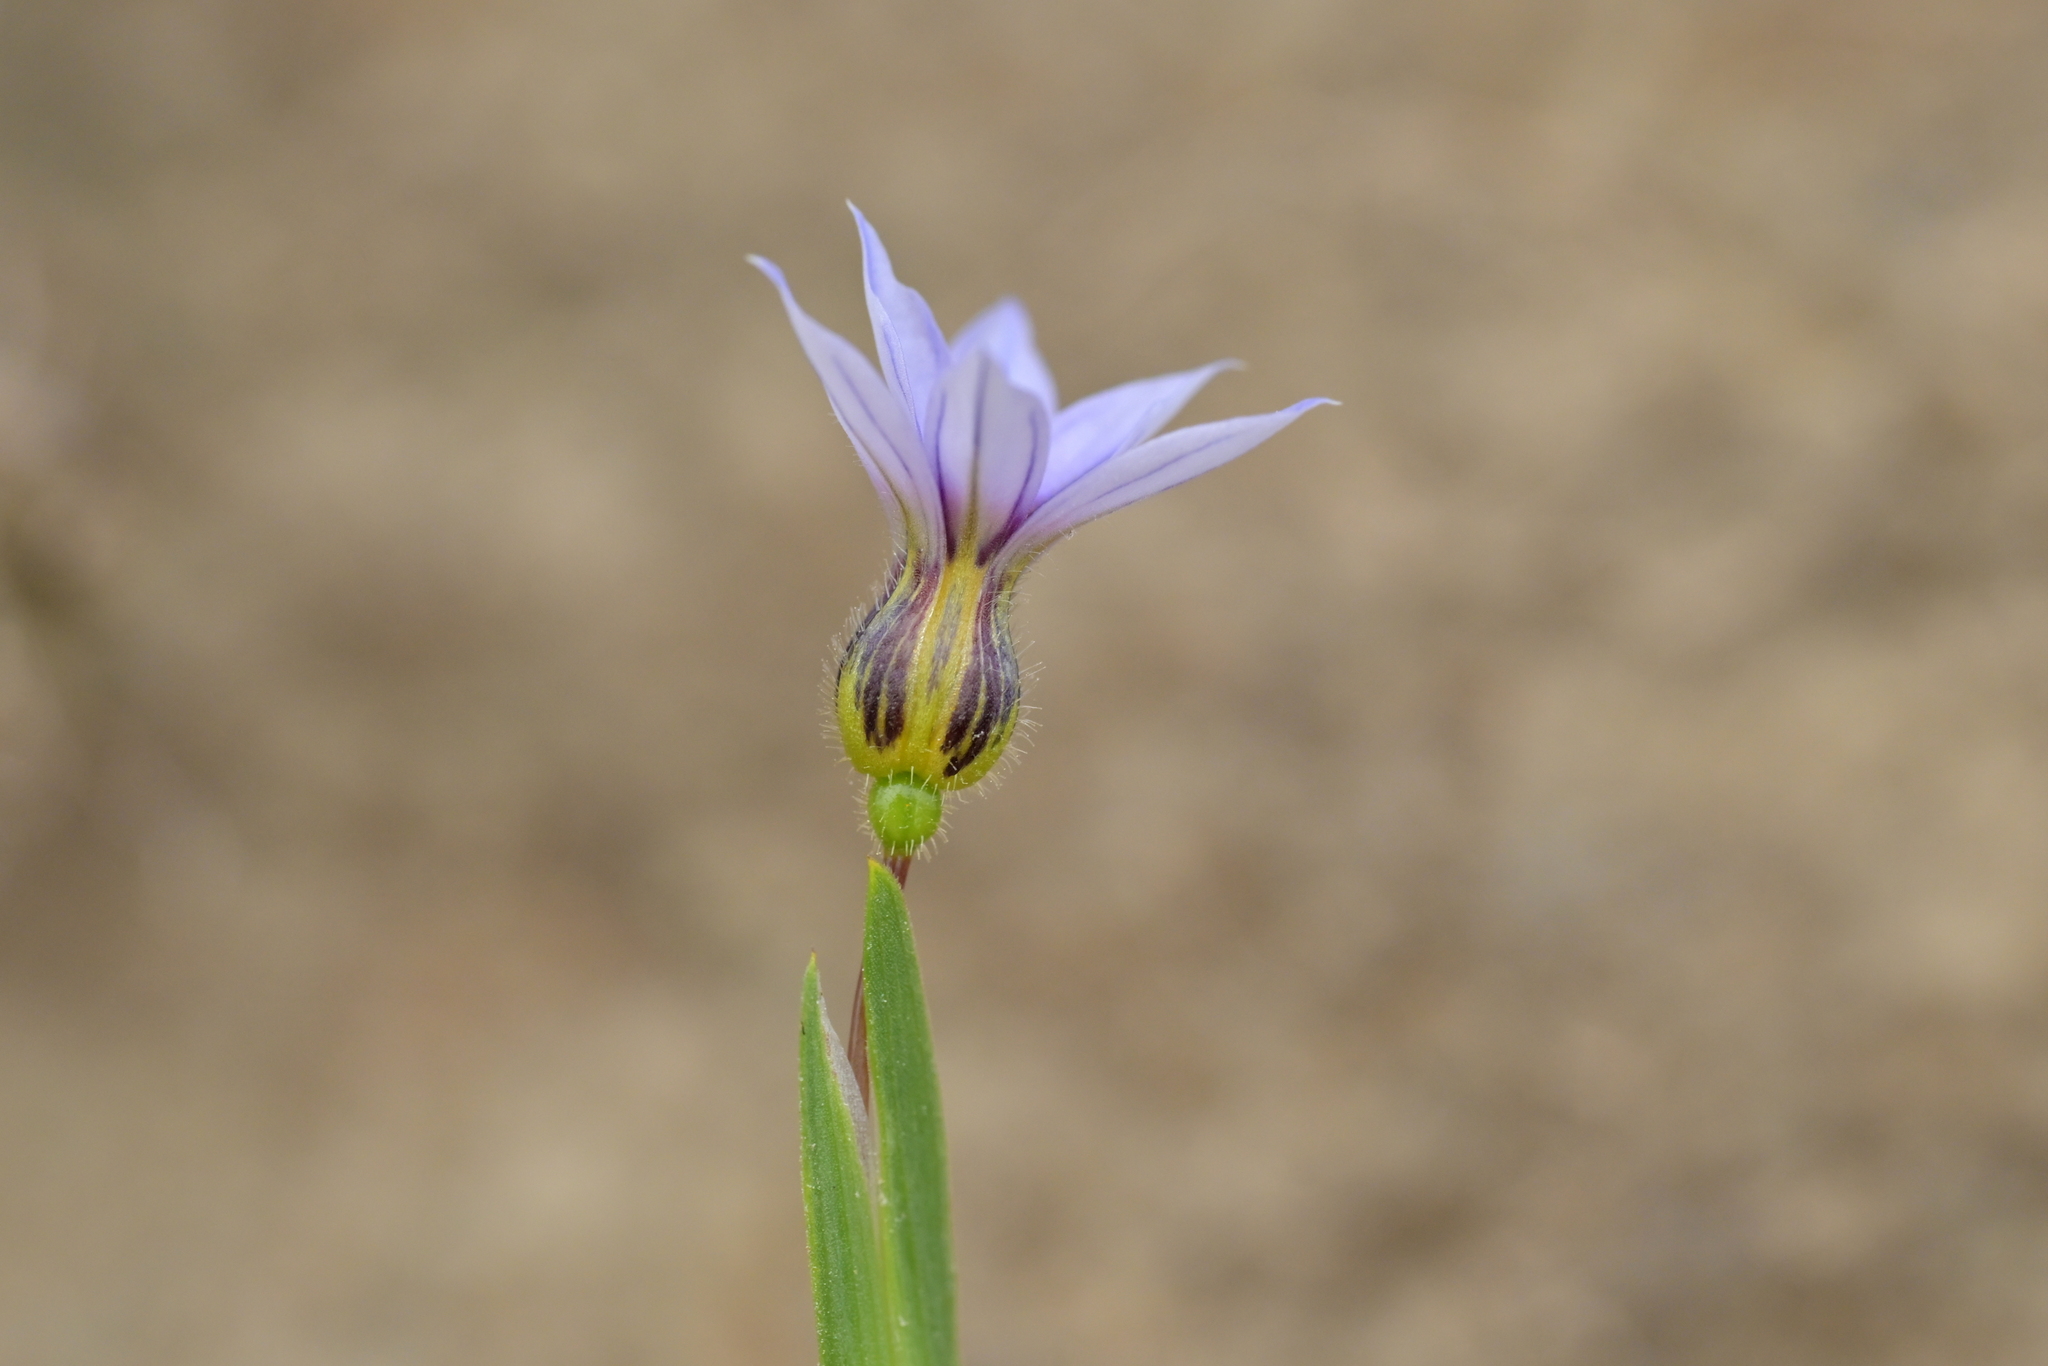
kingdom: Plantae
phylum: Tracheophyta
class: Liliopsida
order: Asparagales
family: Iridaceae
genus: Sisyrinchium
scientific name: Sisyrinchium micranthum
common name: Bermuda pigroot
